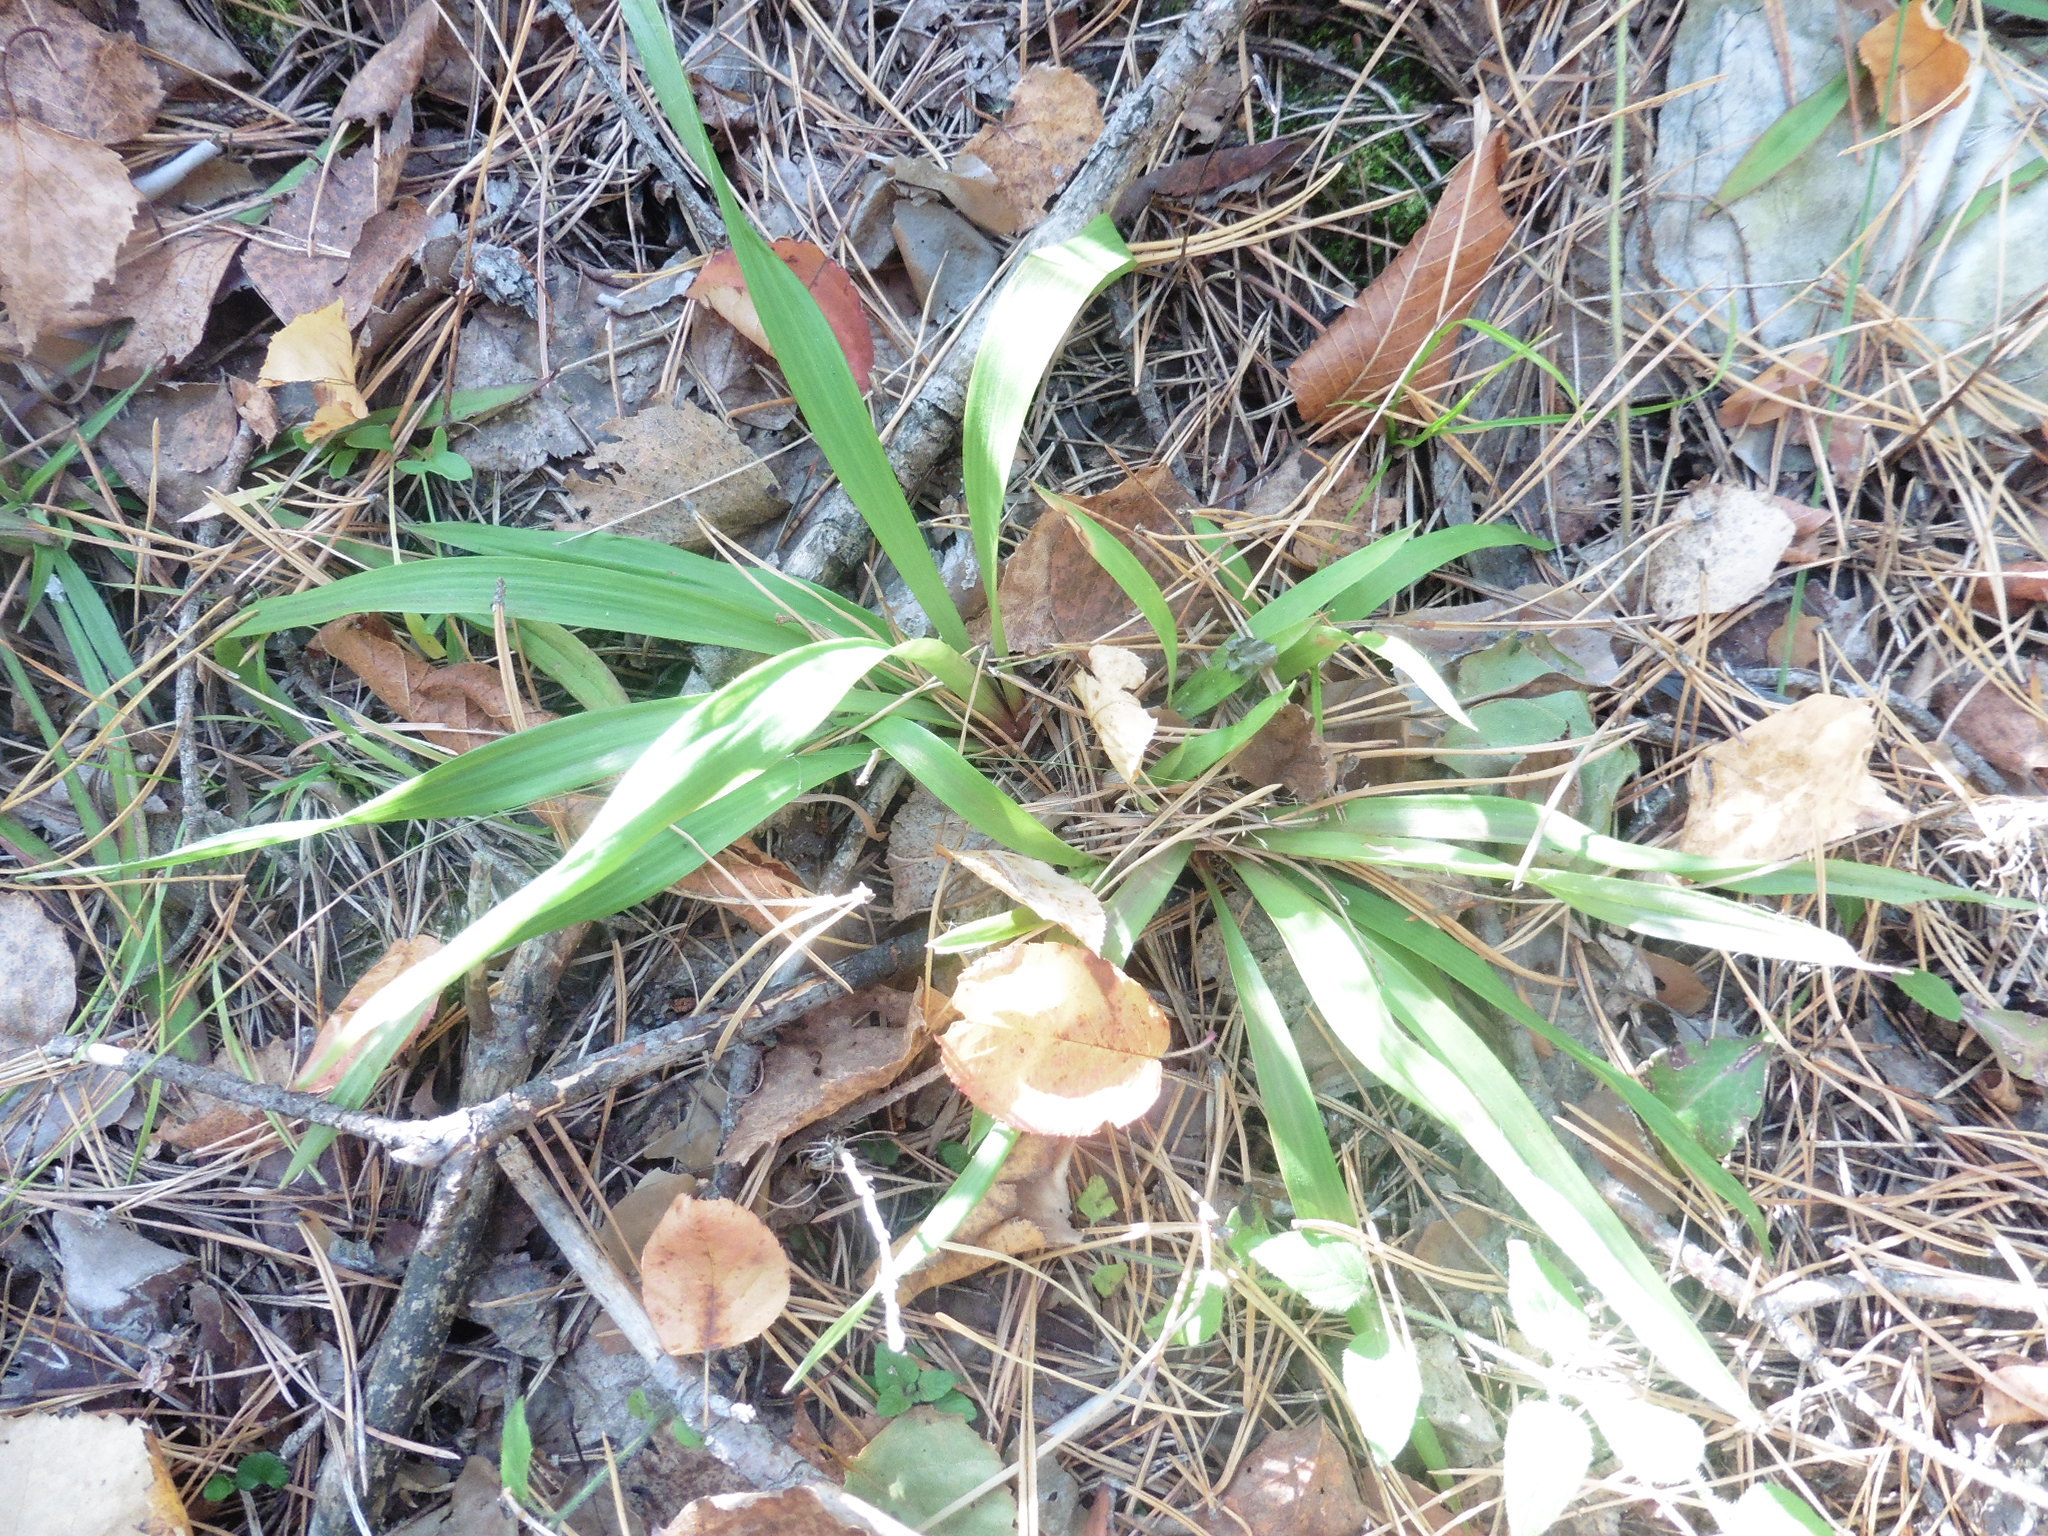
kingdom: Plantae
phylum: Tracheophyta
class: Liliopsida
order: Poales
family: Juncaceae
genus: Luzula
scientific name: Luzula pilosa
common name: Hairy wood-rush
